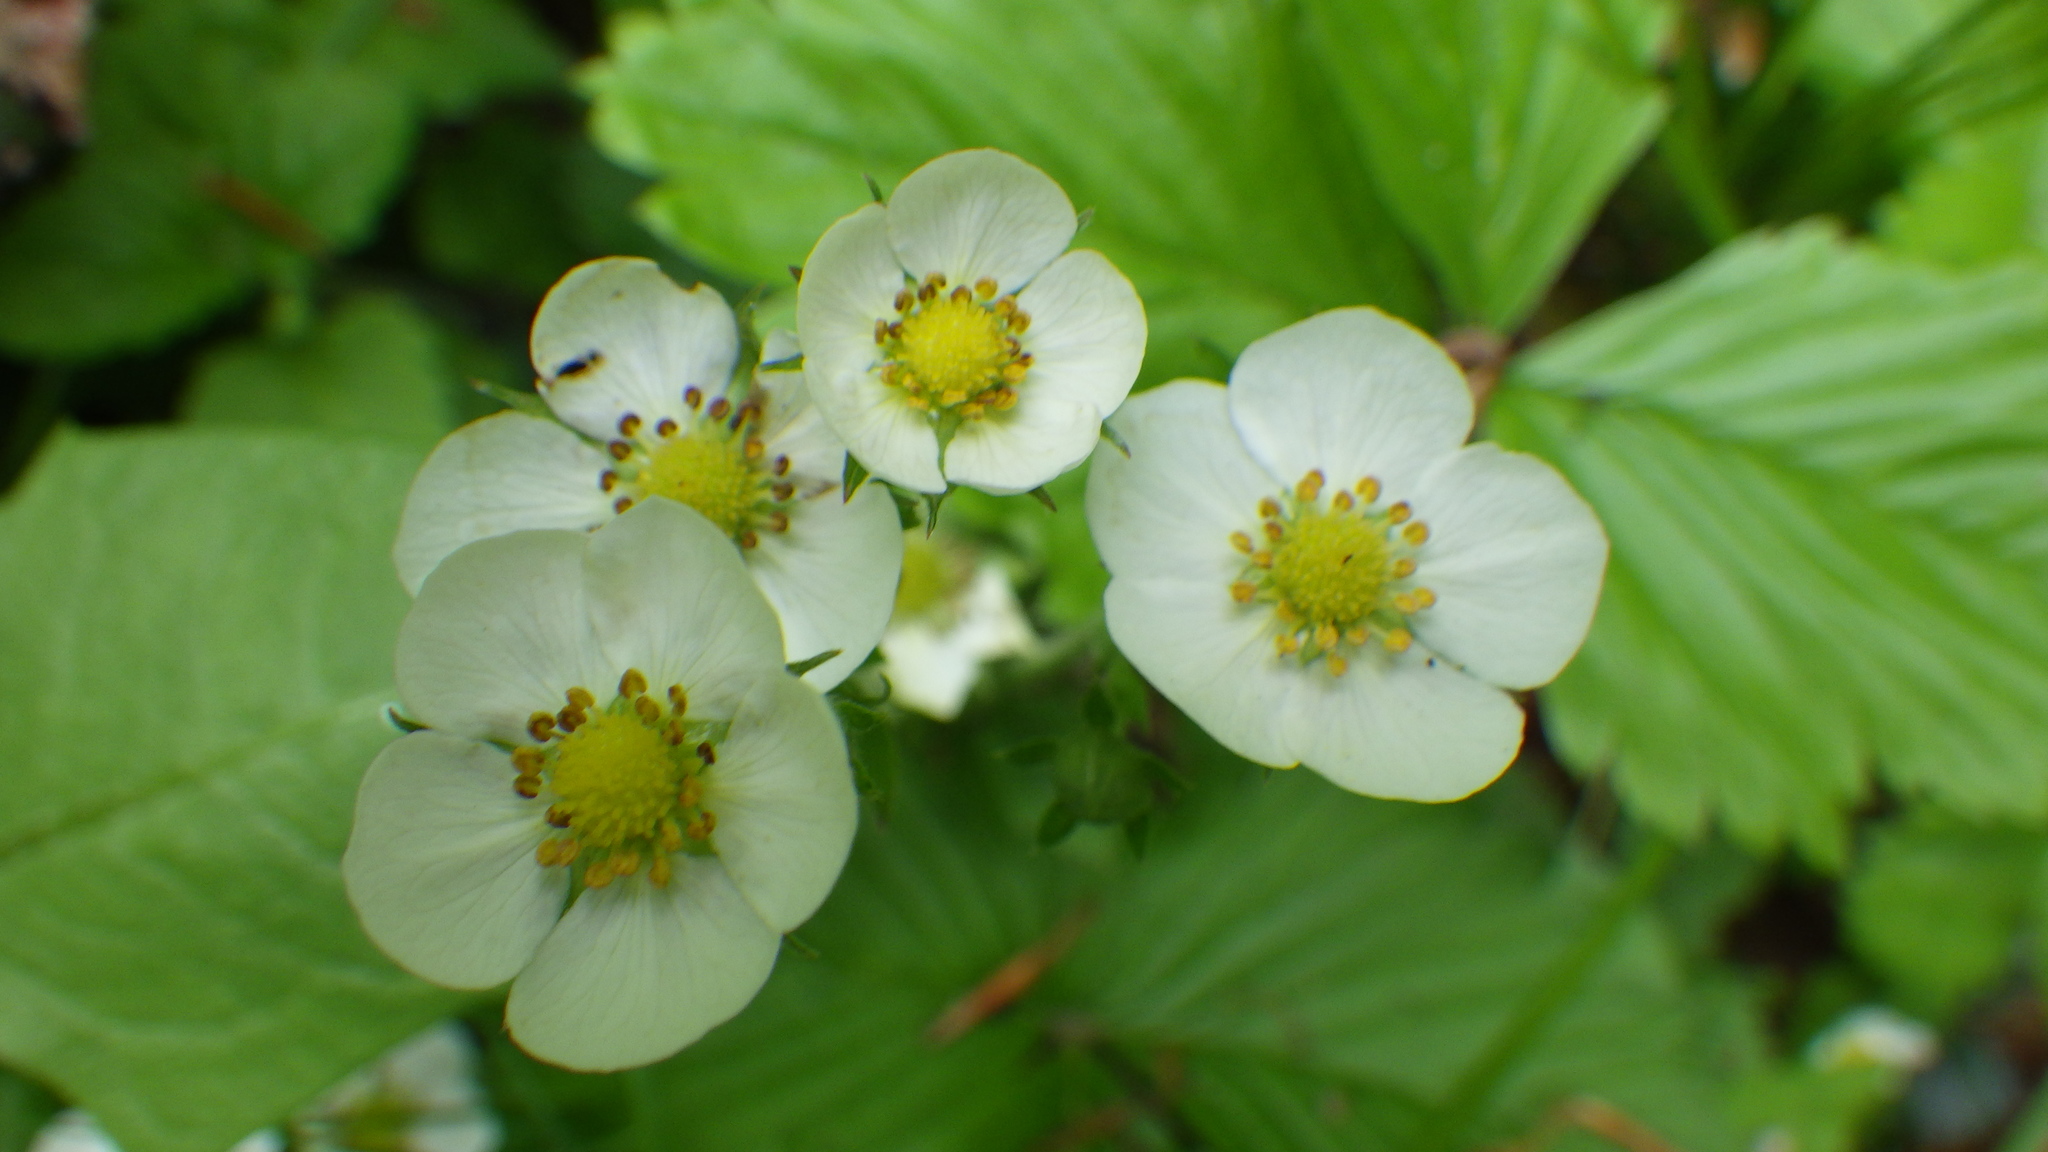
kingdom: Plantae
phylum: Tracheophyta
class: Magnoliopsida
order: Rosales
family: Rosaceae
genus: Fragaria
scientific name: Fragaria vesca
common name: Wild strawberry
